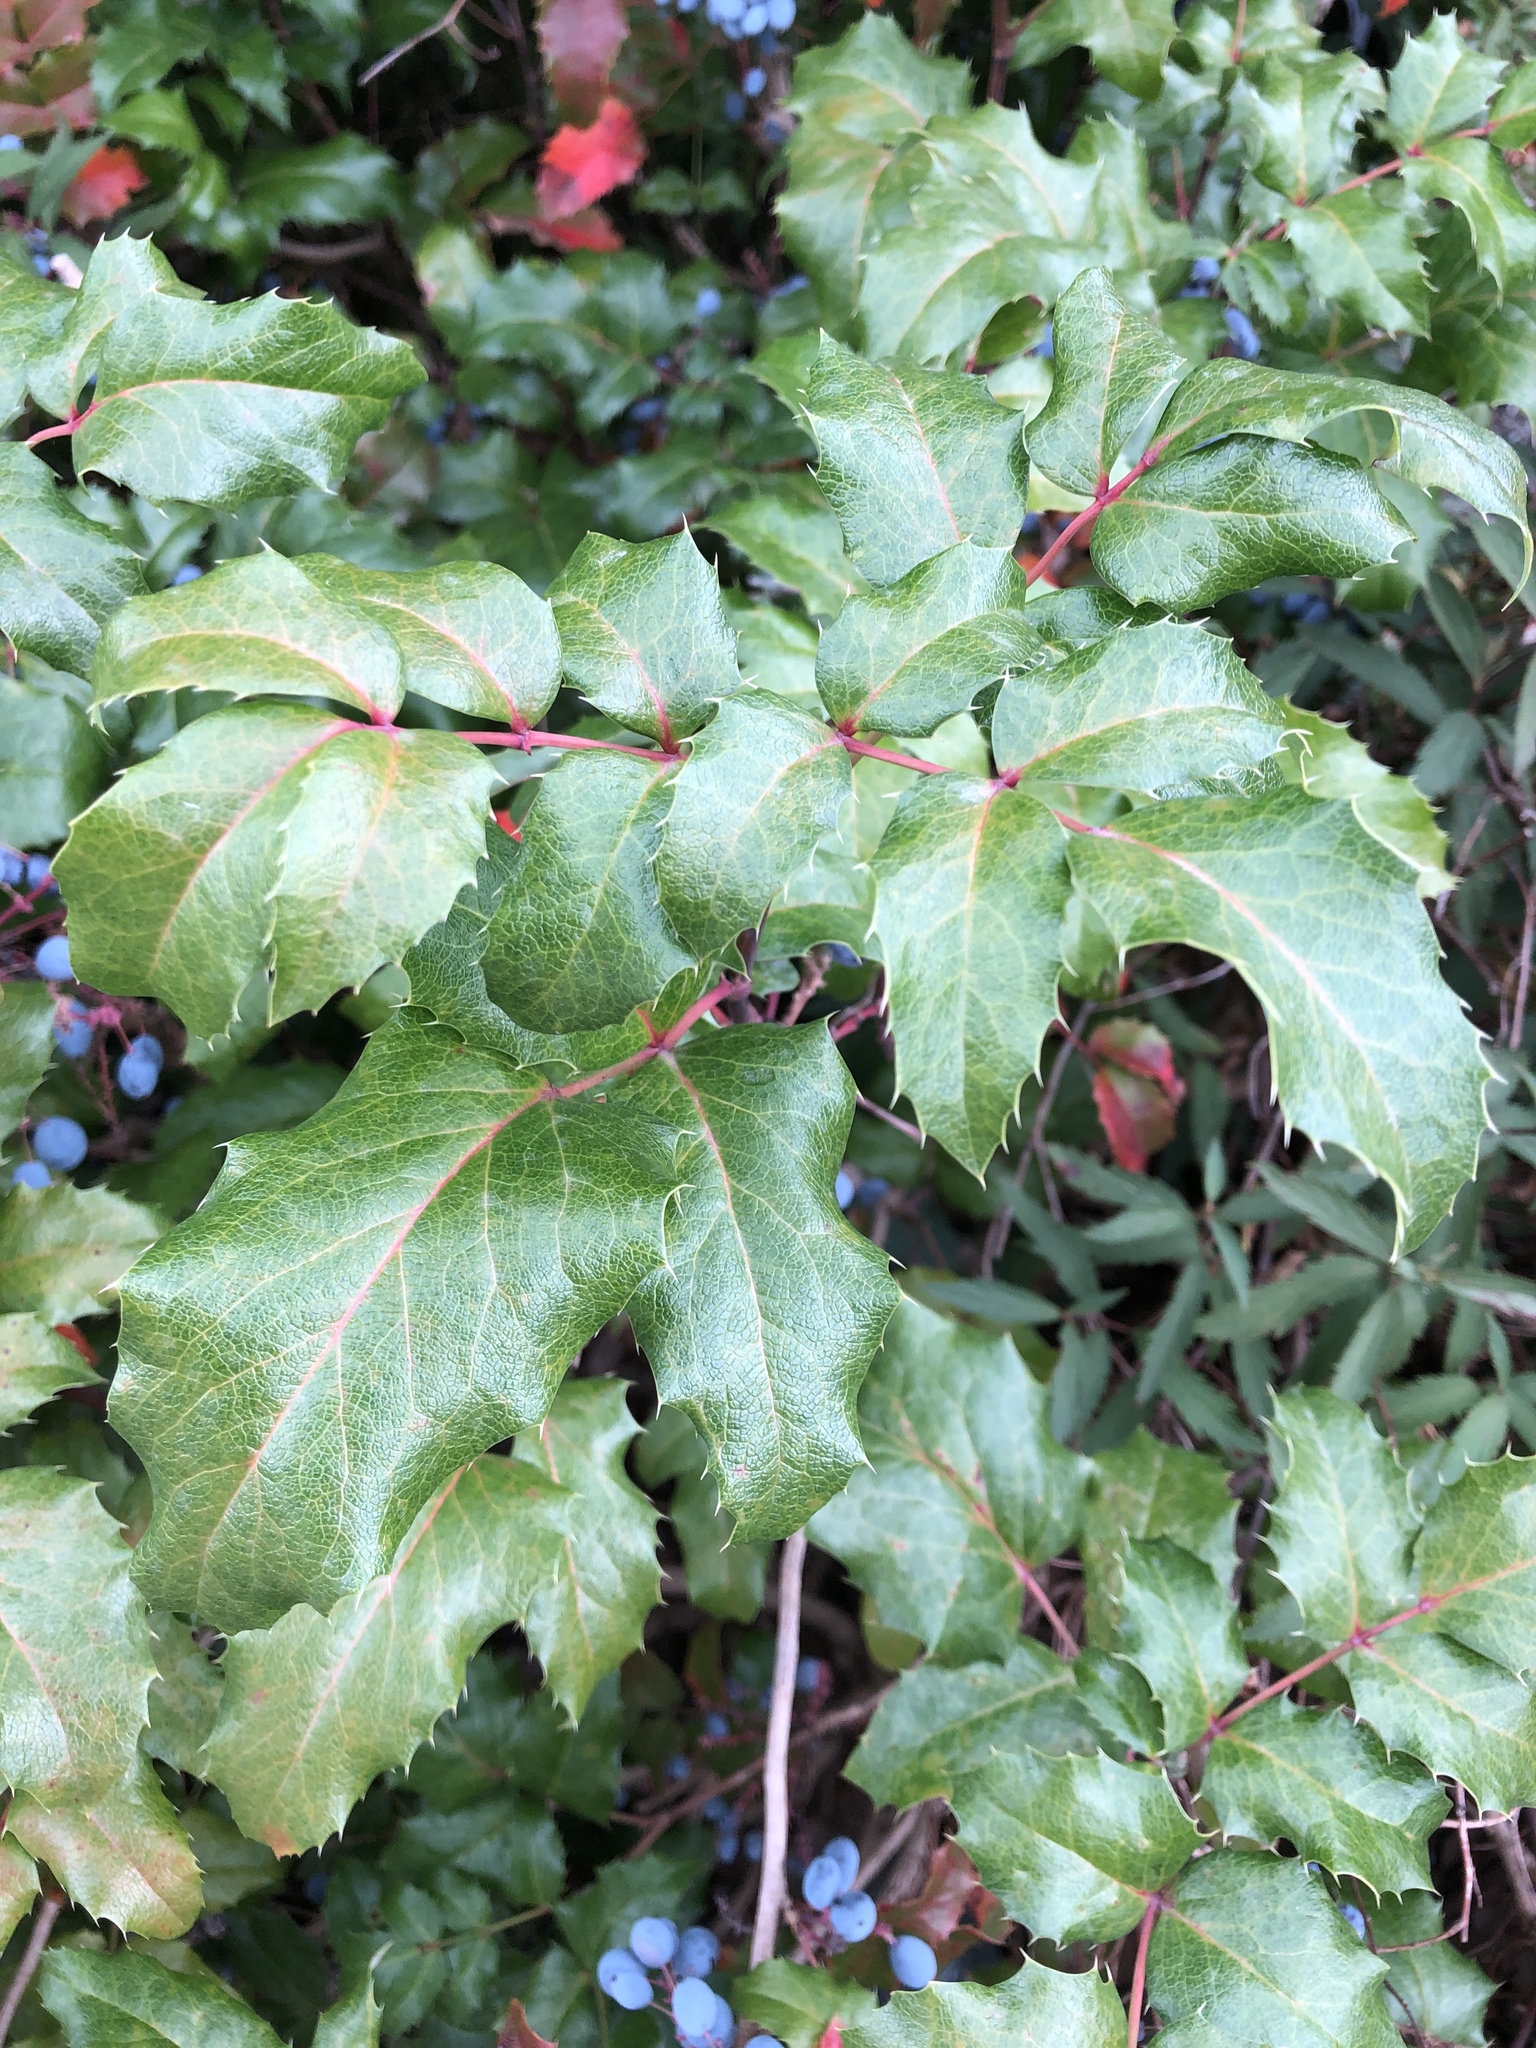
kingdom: Plantae
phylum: Tracheophyta
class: Magnoliopsida
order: Ranunculales
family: Berberidaceae
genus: Mahonia
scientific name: Mahonia aquifolium
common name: Oregon-grape
